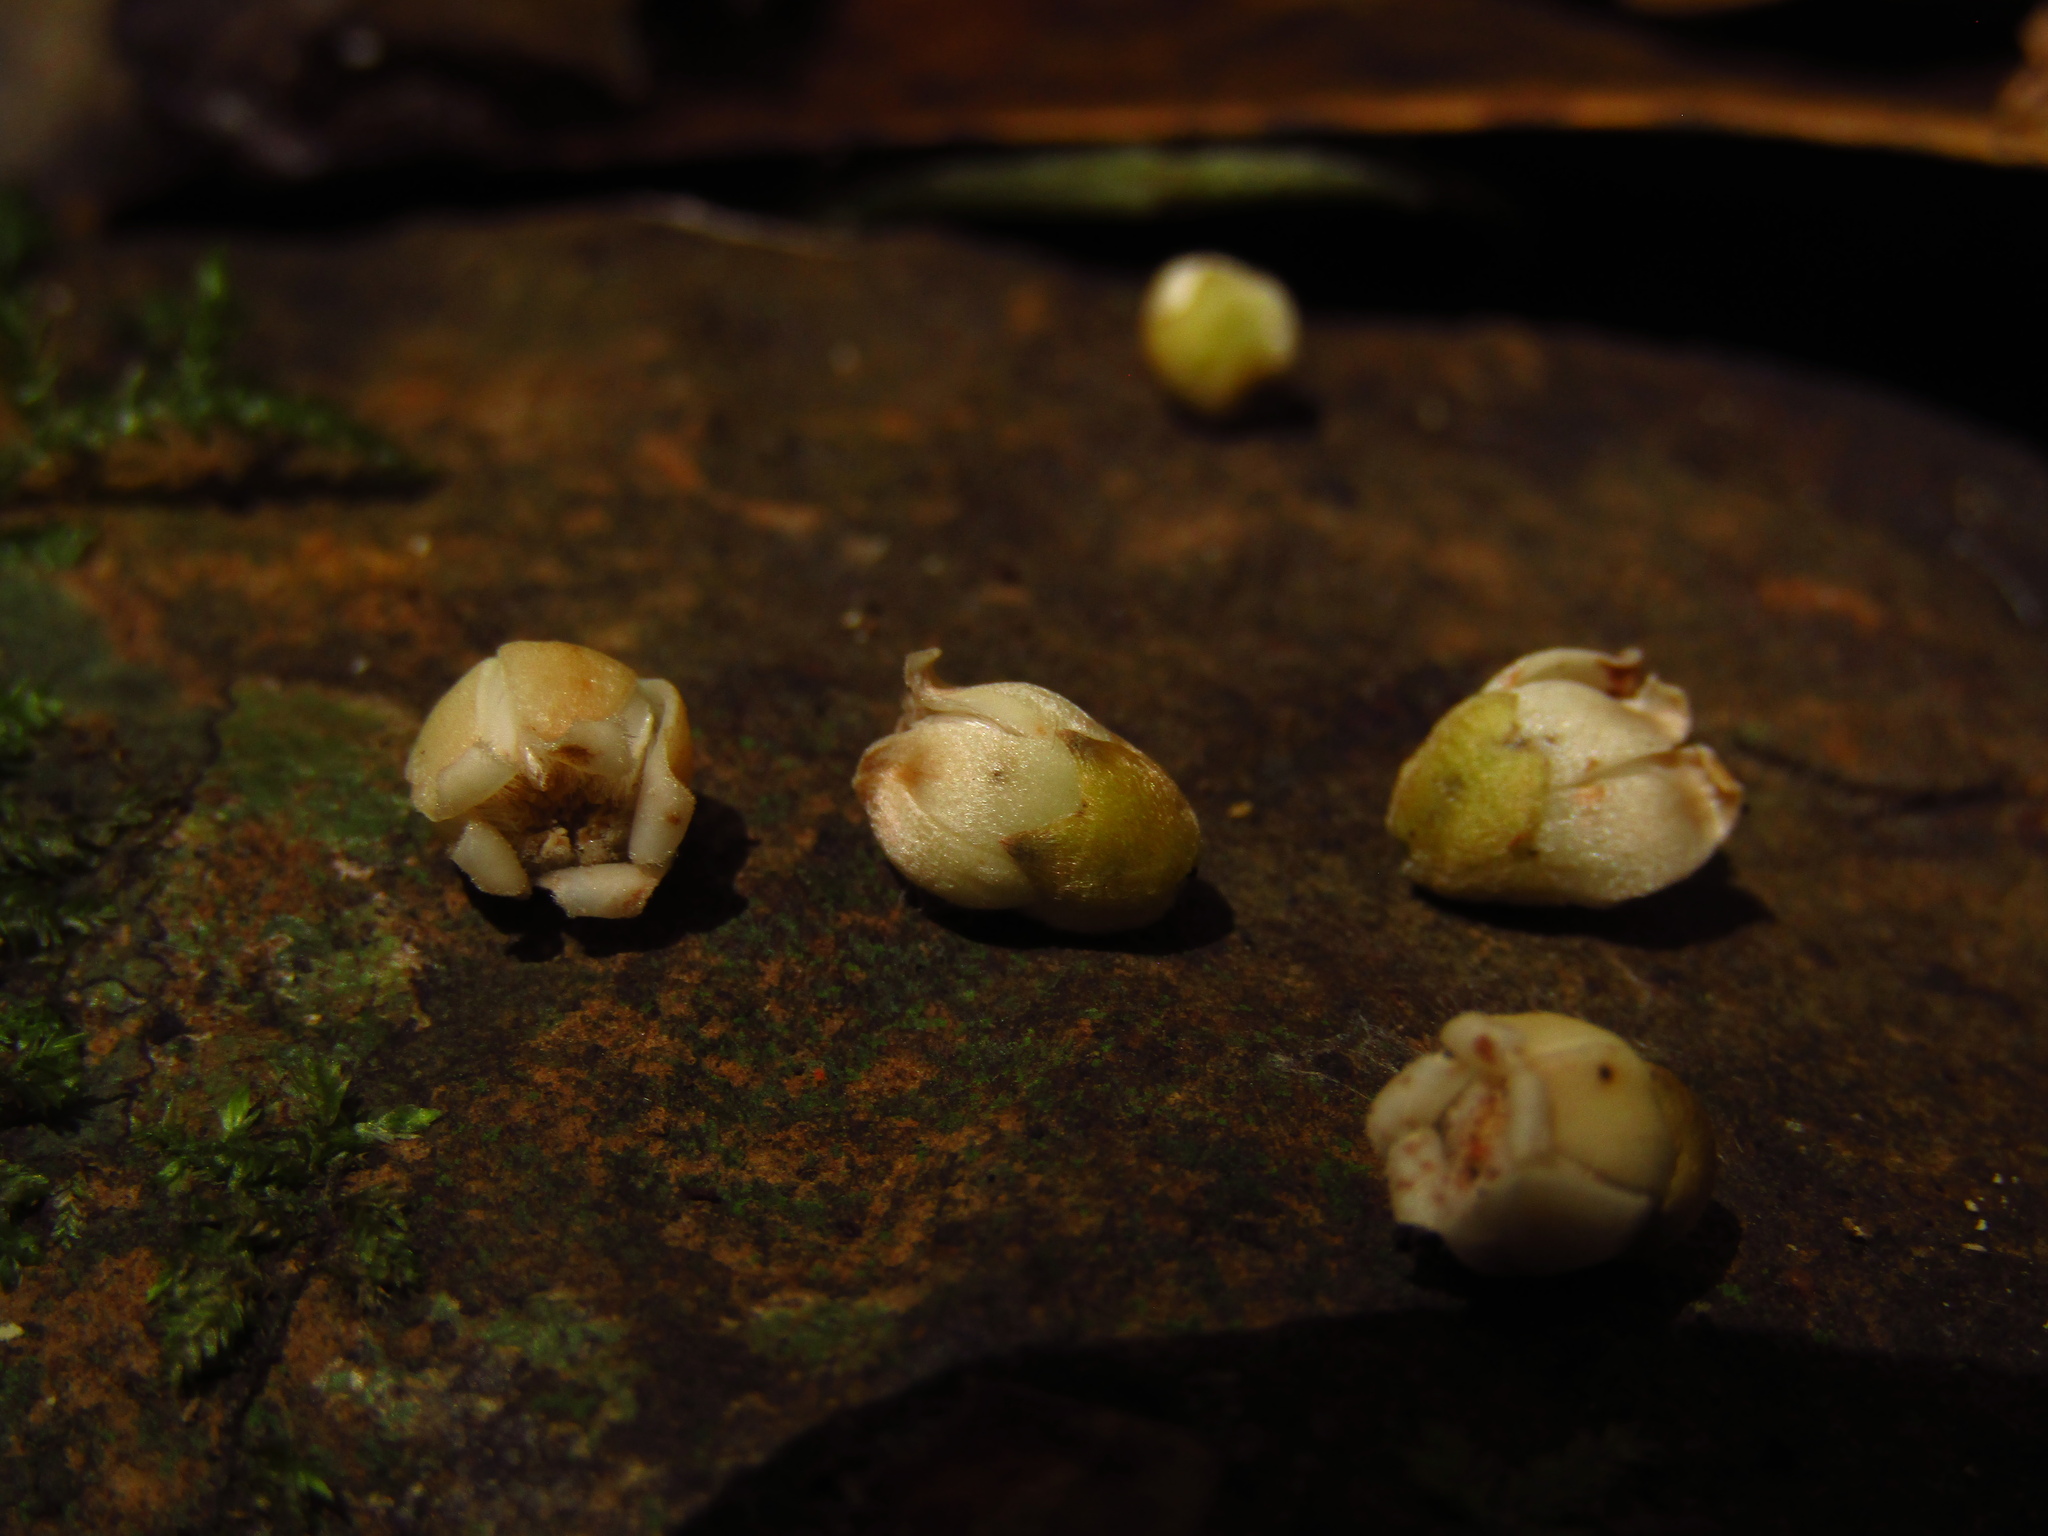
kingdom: Plantae
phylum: Tracheophyta
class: Magnoliopsida
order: Ericales
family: Ebenaceae
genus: Diospyros
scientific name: Diospyros pentamera
